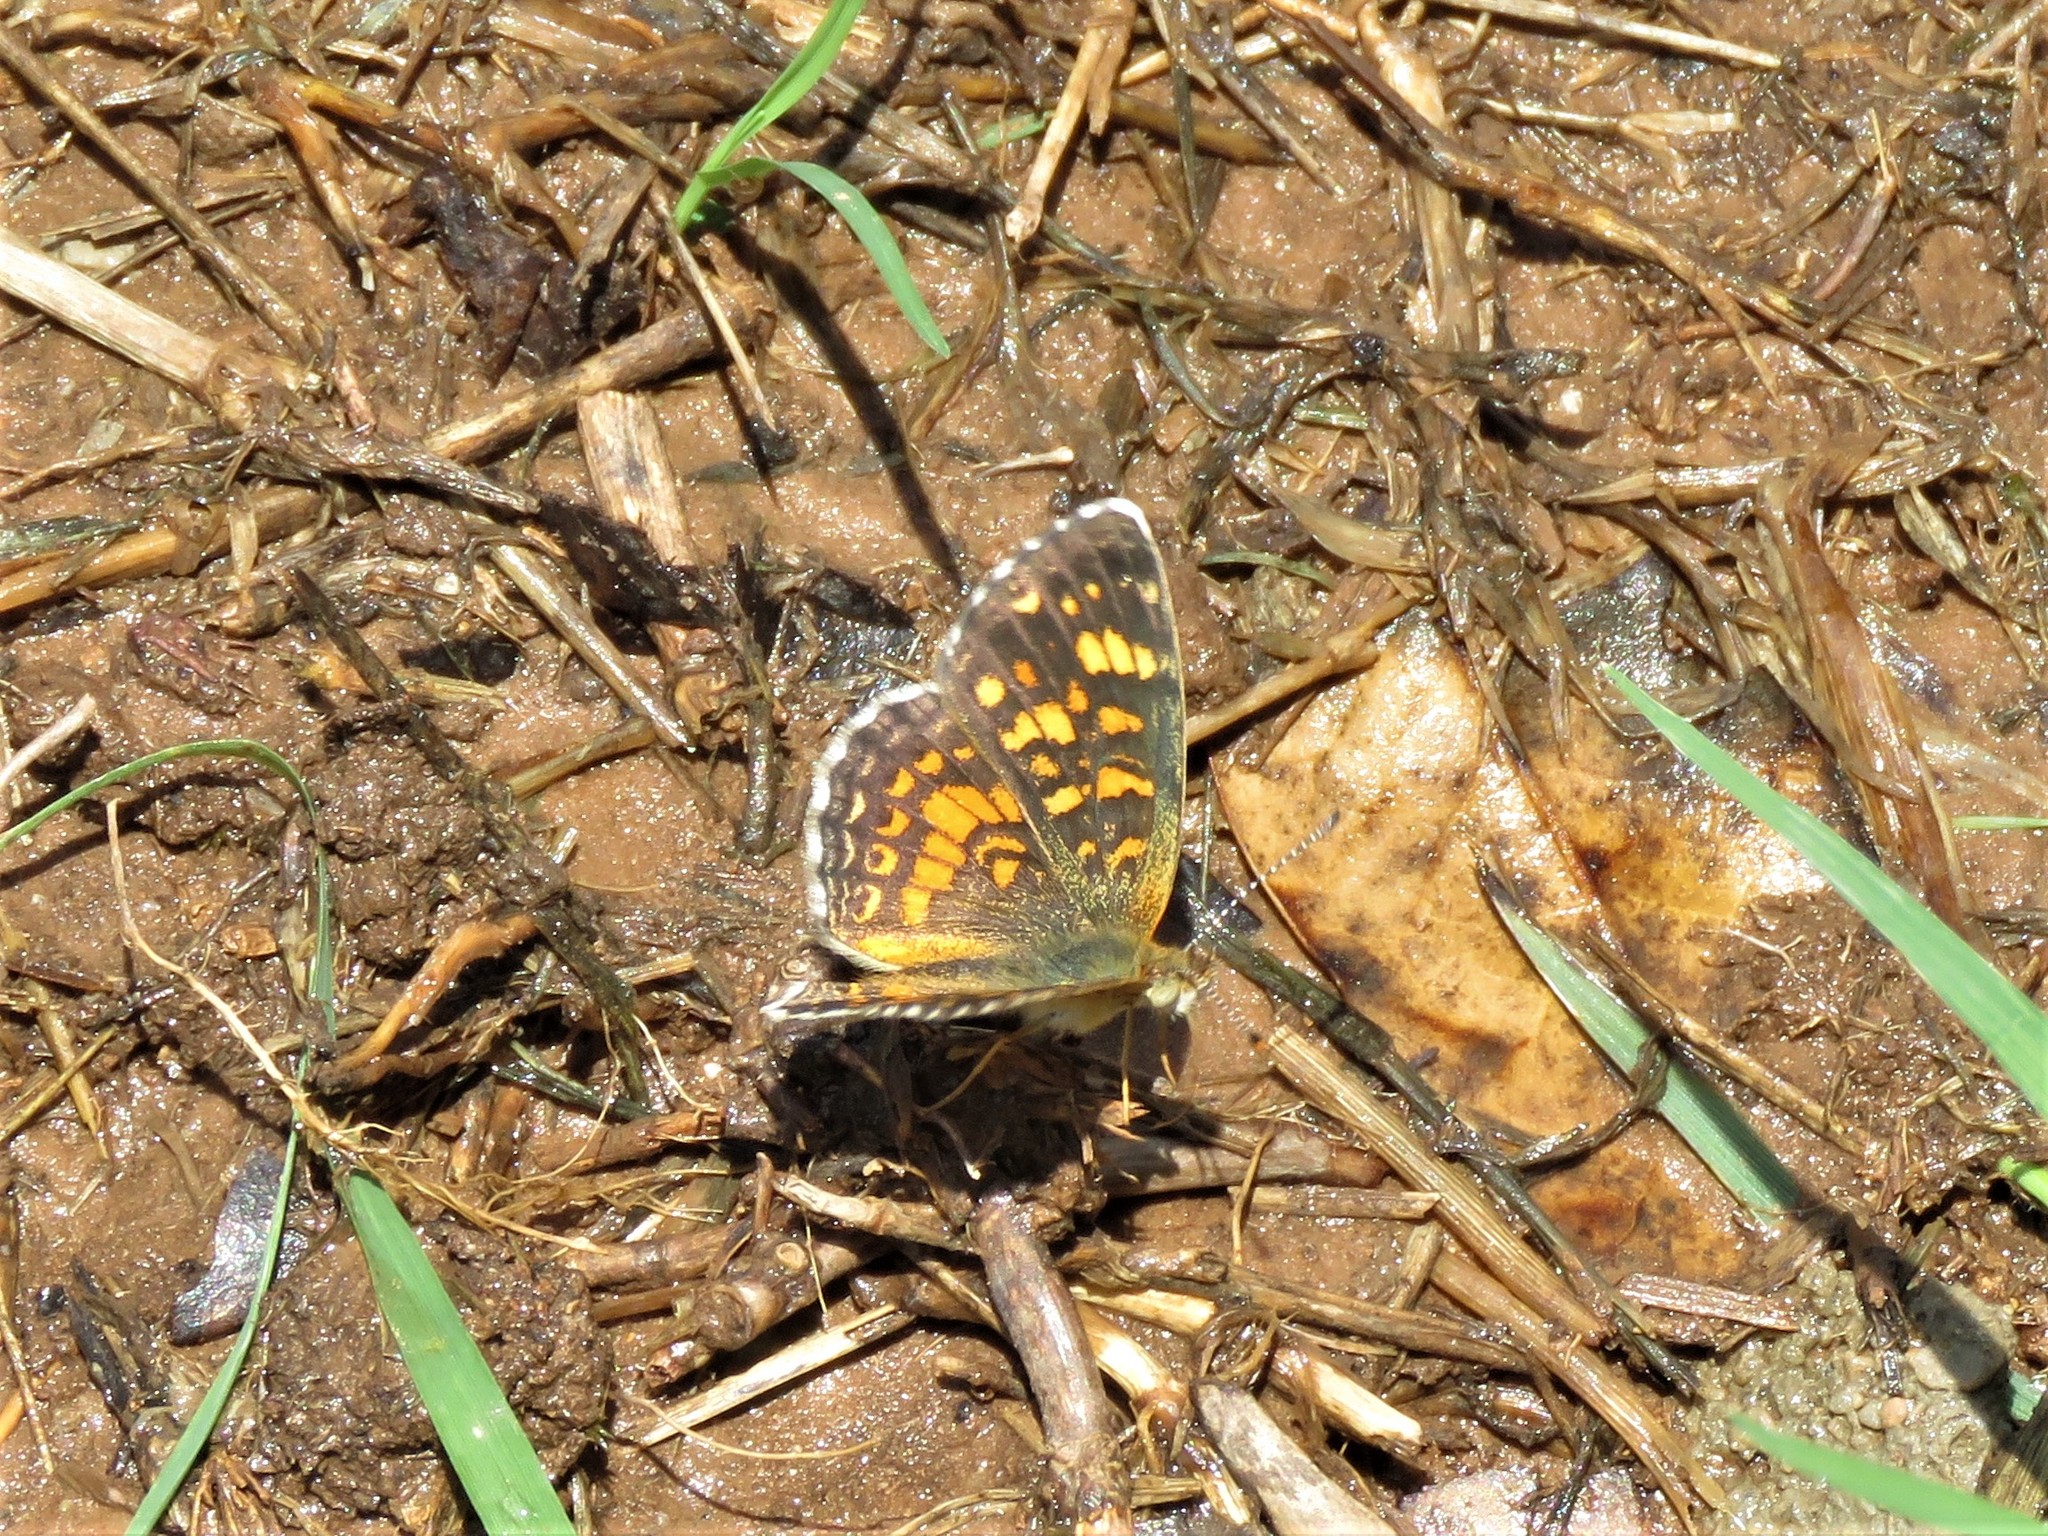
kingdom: Animalia
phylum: Arthropoda
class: Insecta
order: Lepidoptera
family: Nymphalidae
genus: Phyciodes
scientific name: Phyciodes vesta
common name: Vesta crescent
